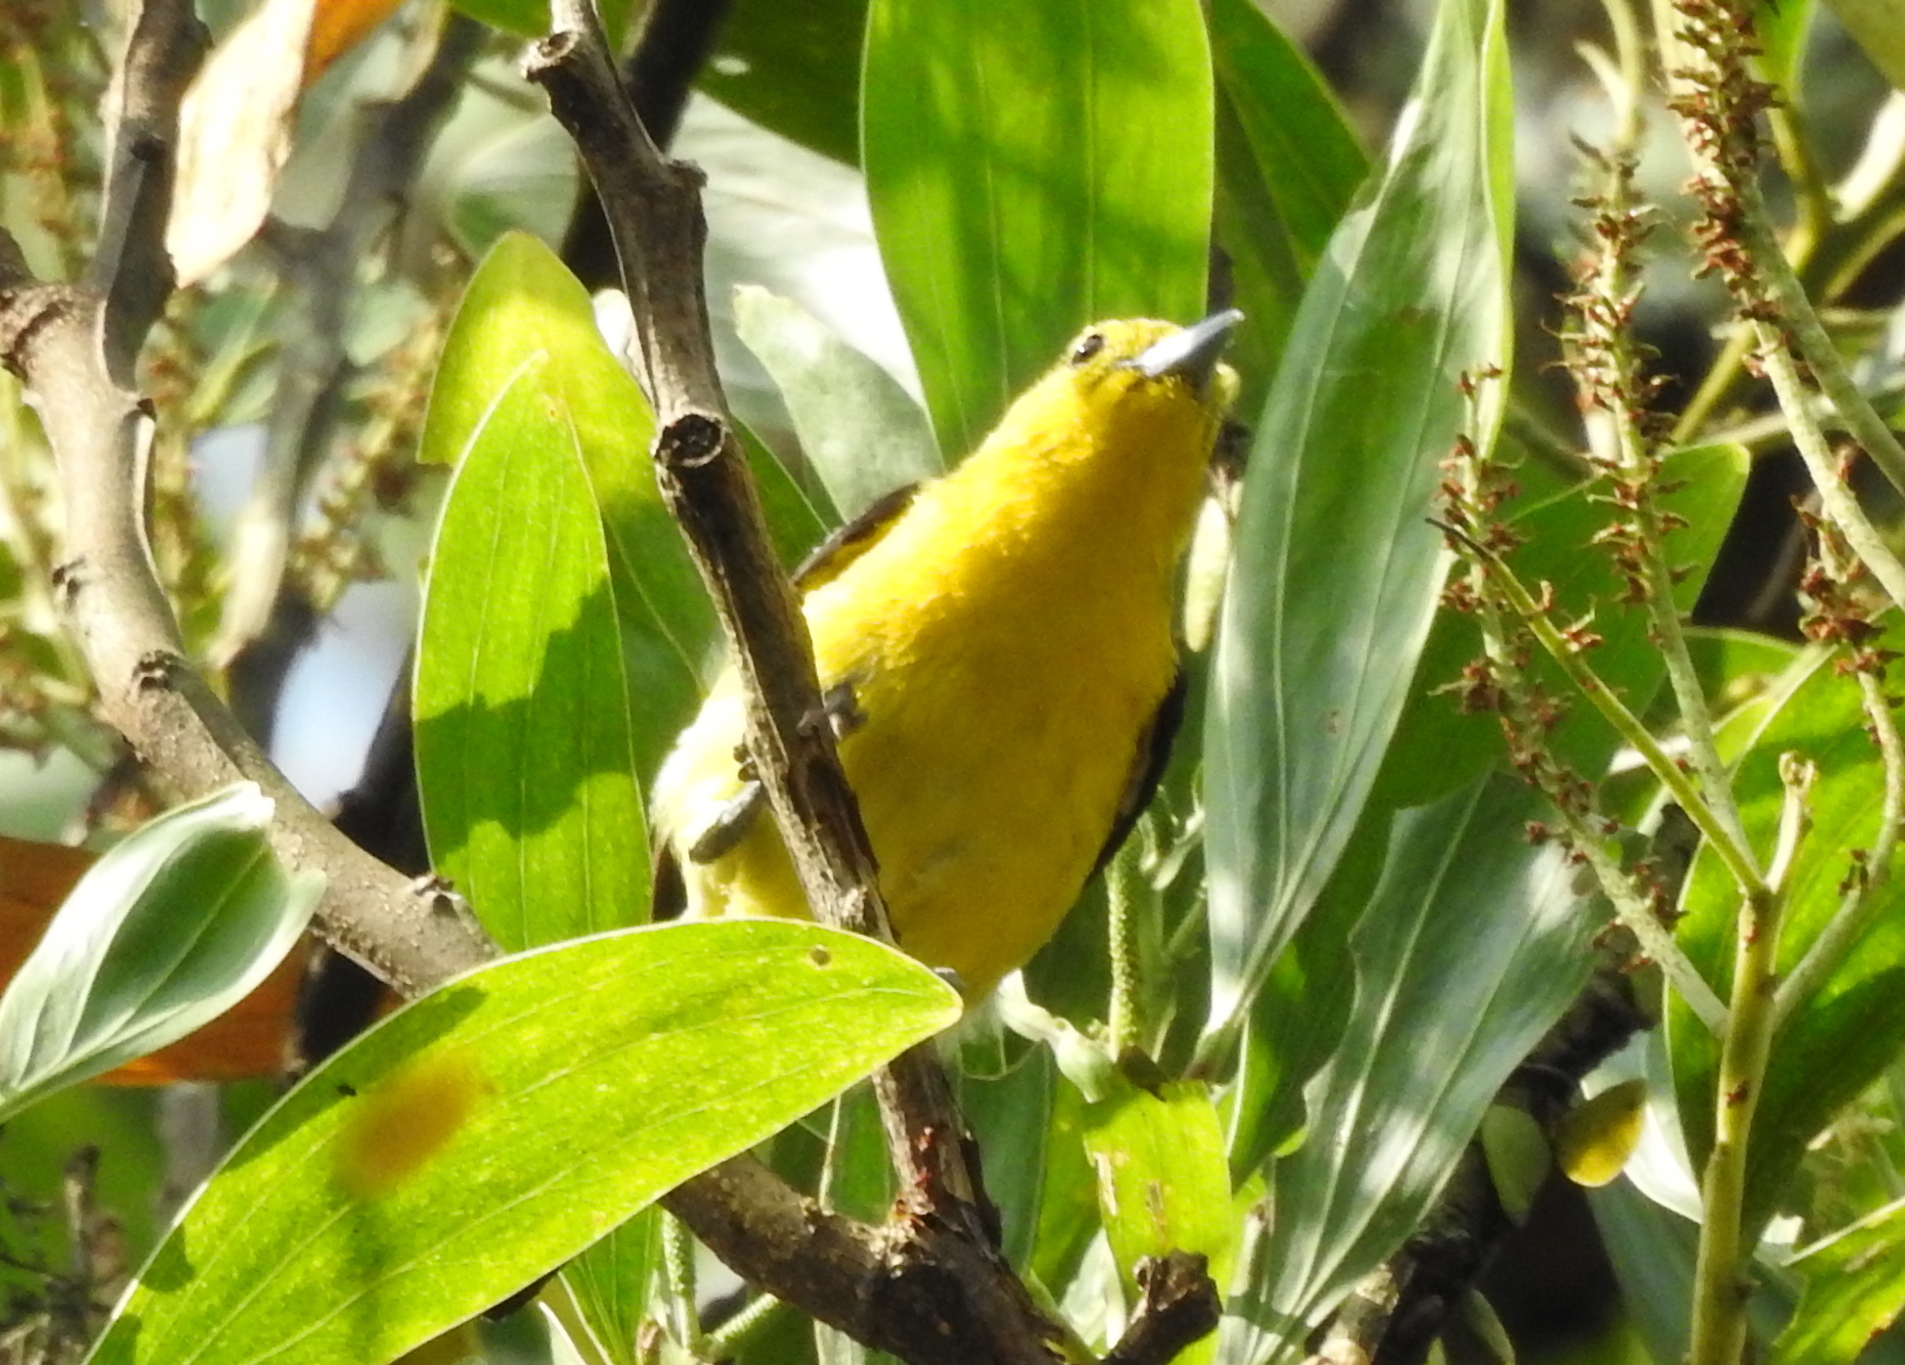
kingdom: Animalia
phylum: Chordata
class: Aves
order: Passeriformes
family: Aegithinidae
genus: Aegithina
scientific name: Aegithina tiphia
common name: Common iora
